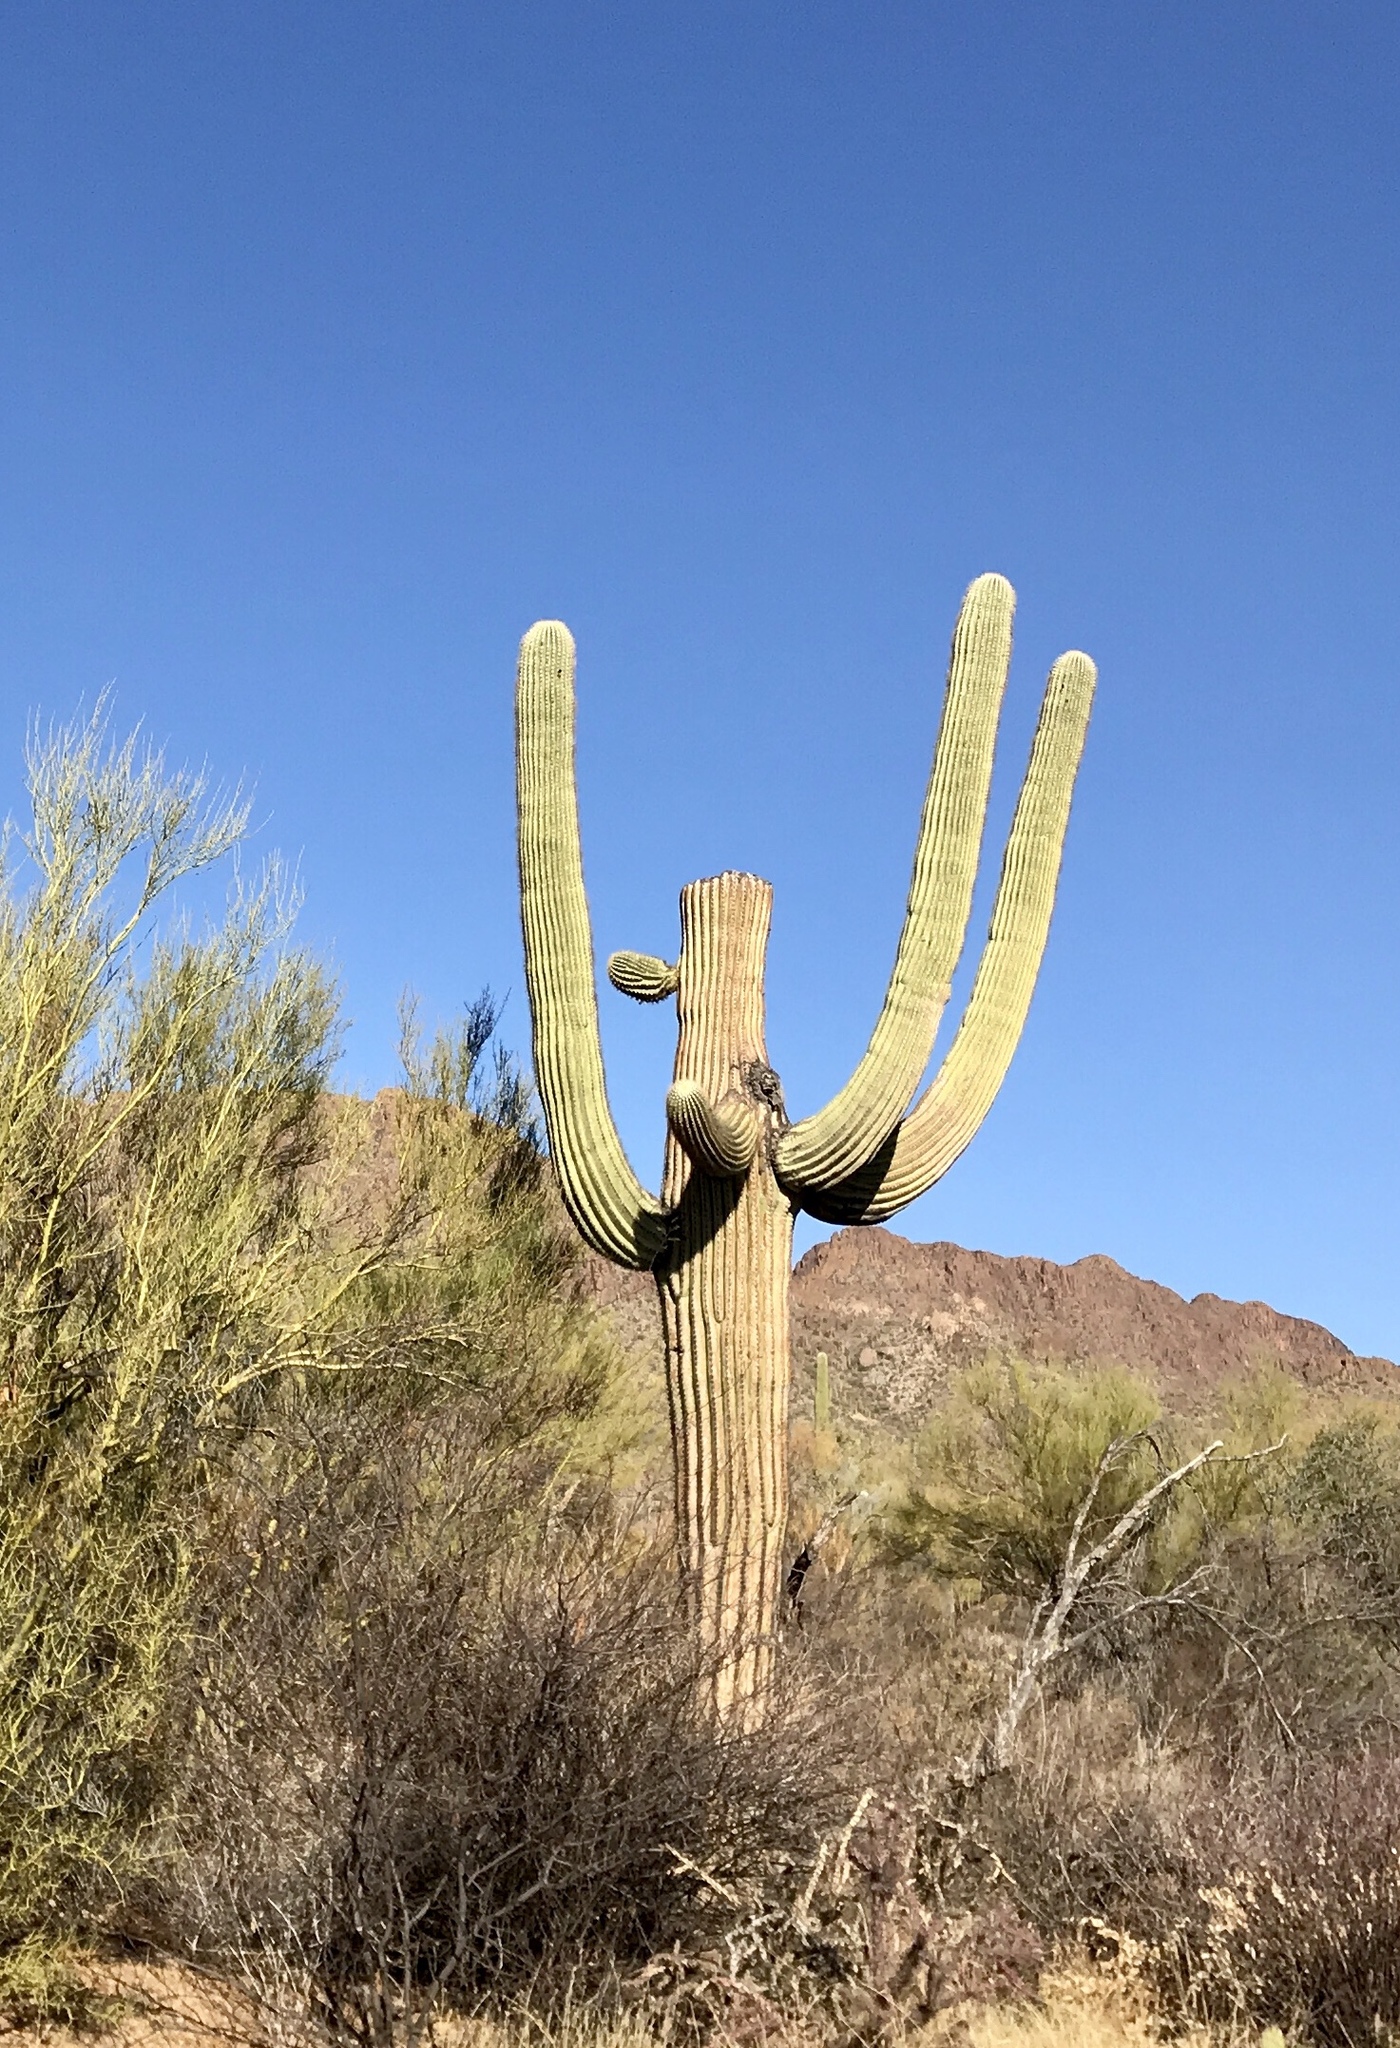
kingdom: Plantae
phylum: Tracheophyta
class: Magnoliopsida
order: Caryophyllales
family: Cactaceae
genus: Carnegiea
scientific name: Carnegiea gigantea
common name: Saguaro
